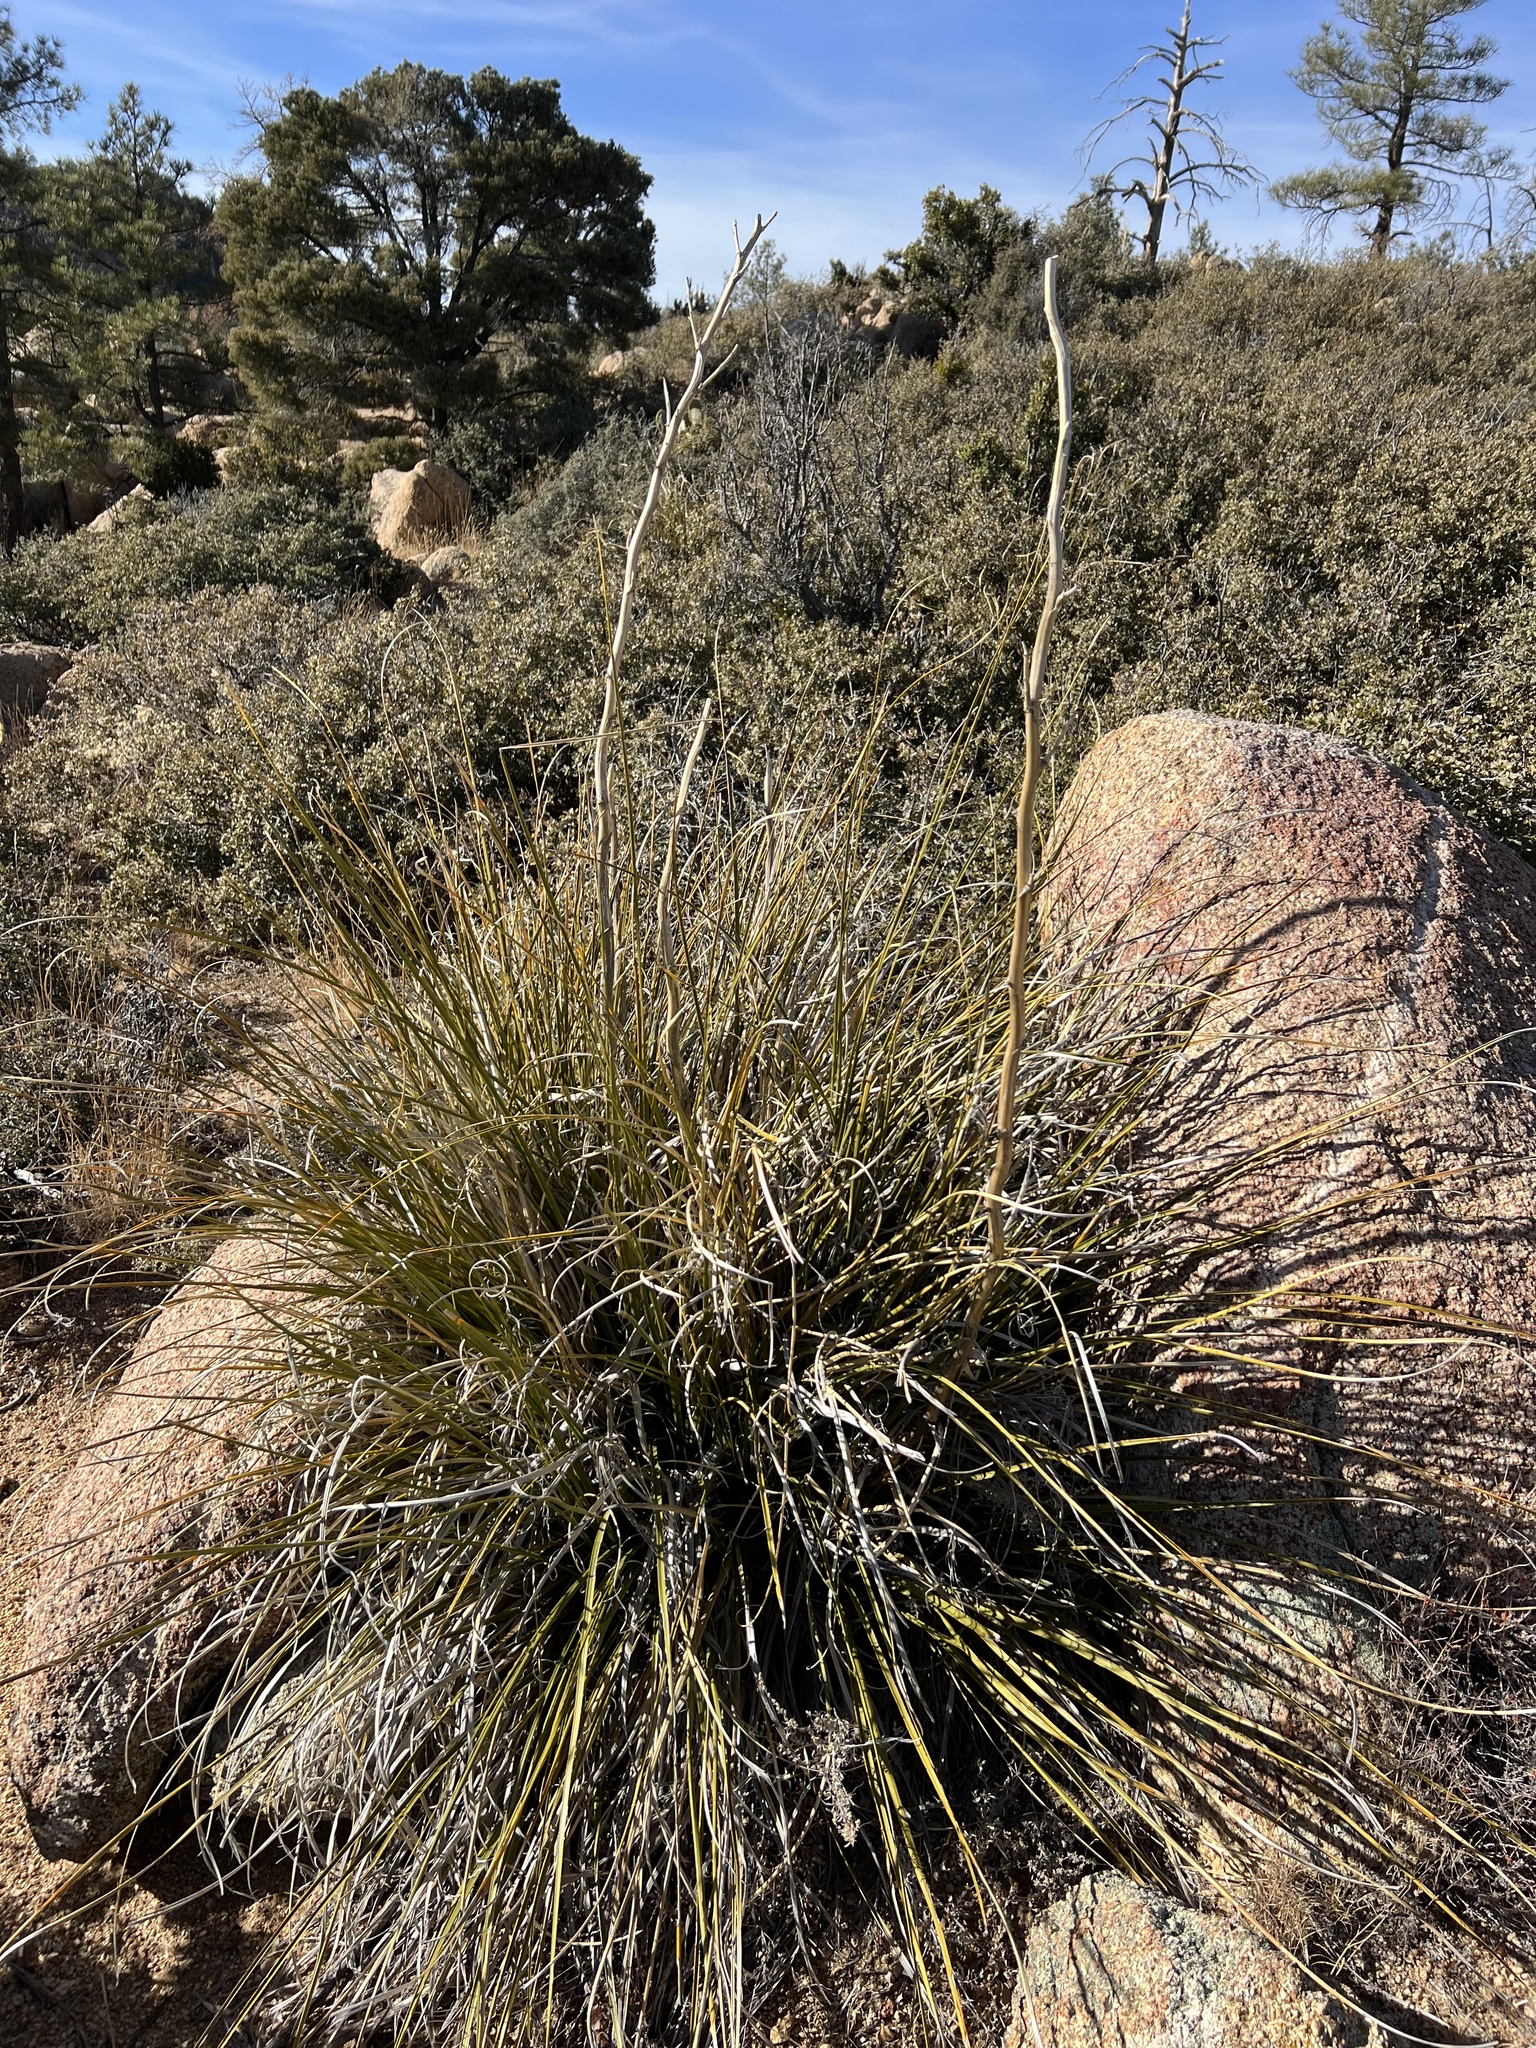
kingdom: Plantae
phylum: Tracheophyta
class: Liliopsida
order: Asparagales
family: Asparagaceae
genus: Nolina
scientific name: Nolina microcarpa
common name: Bear-grass
